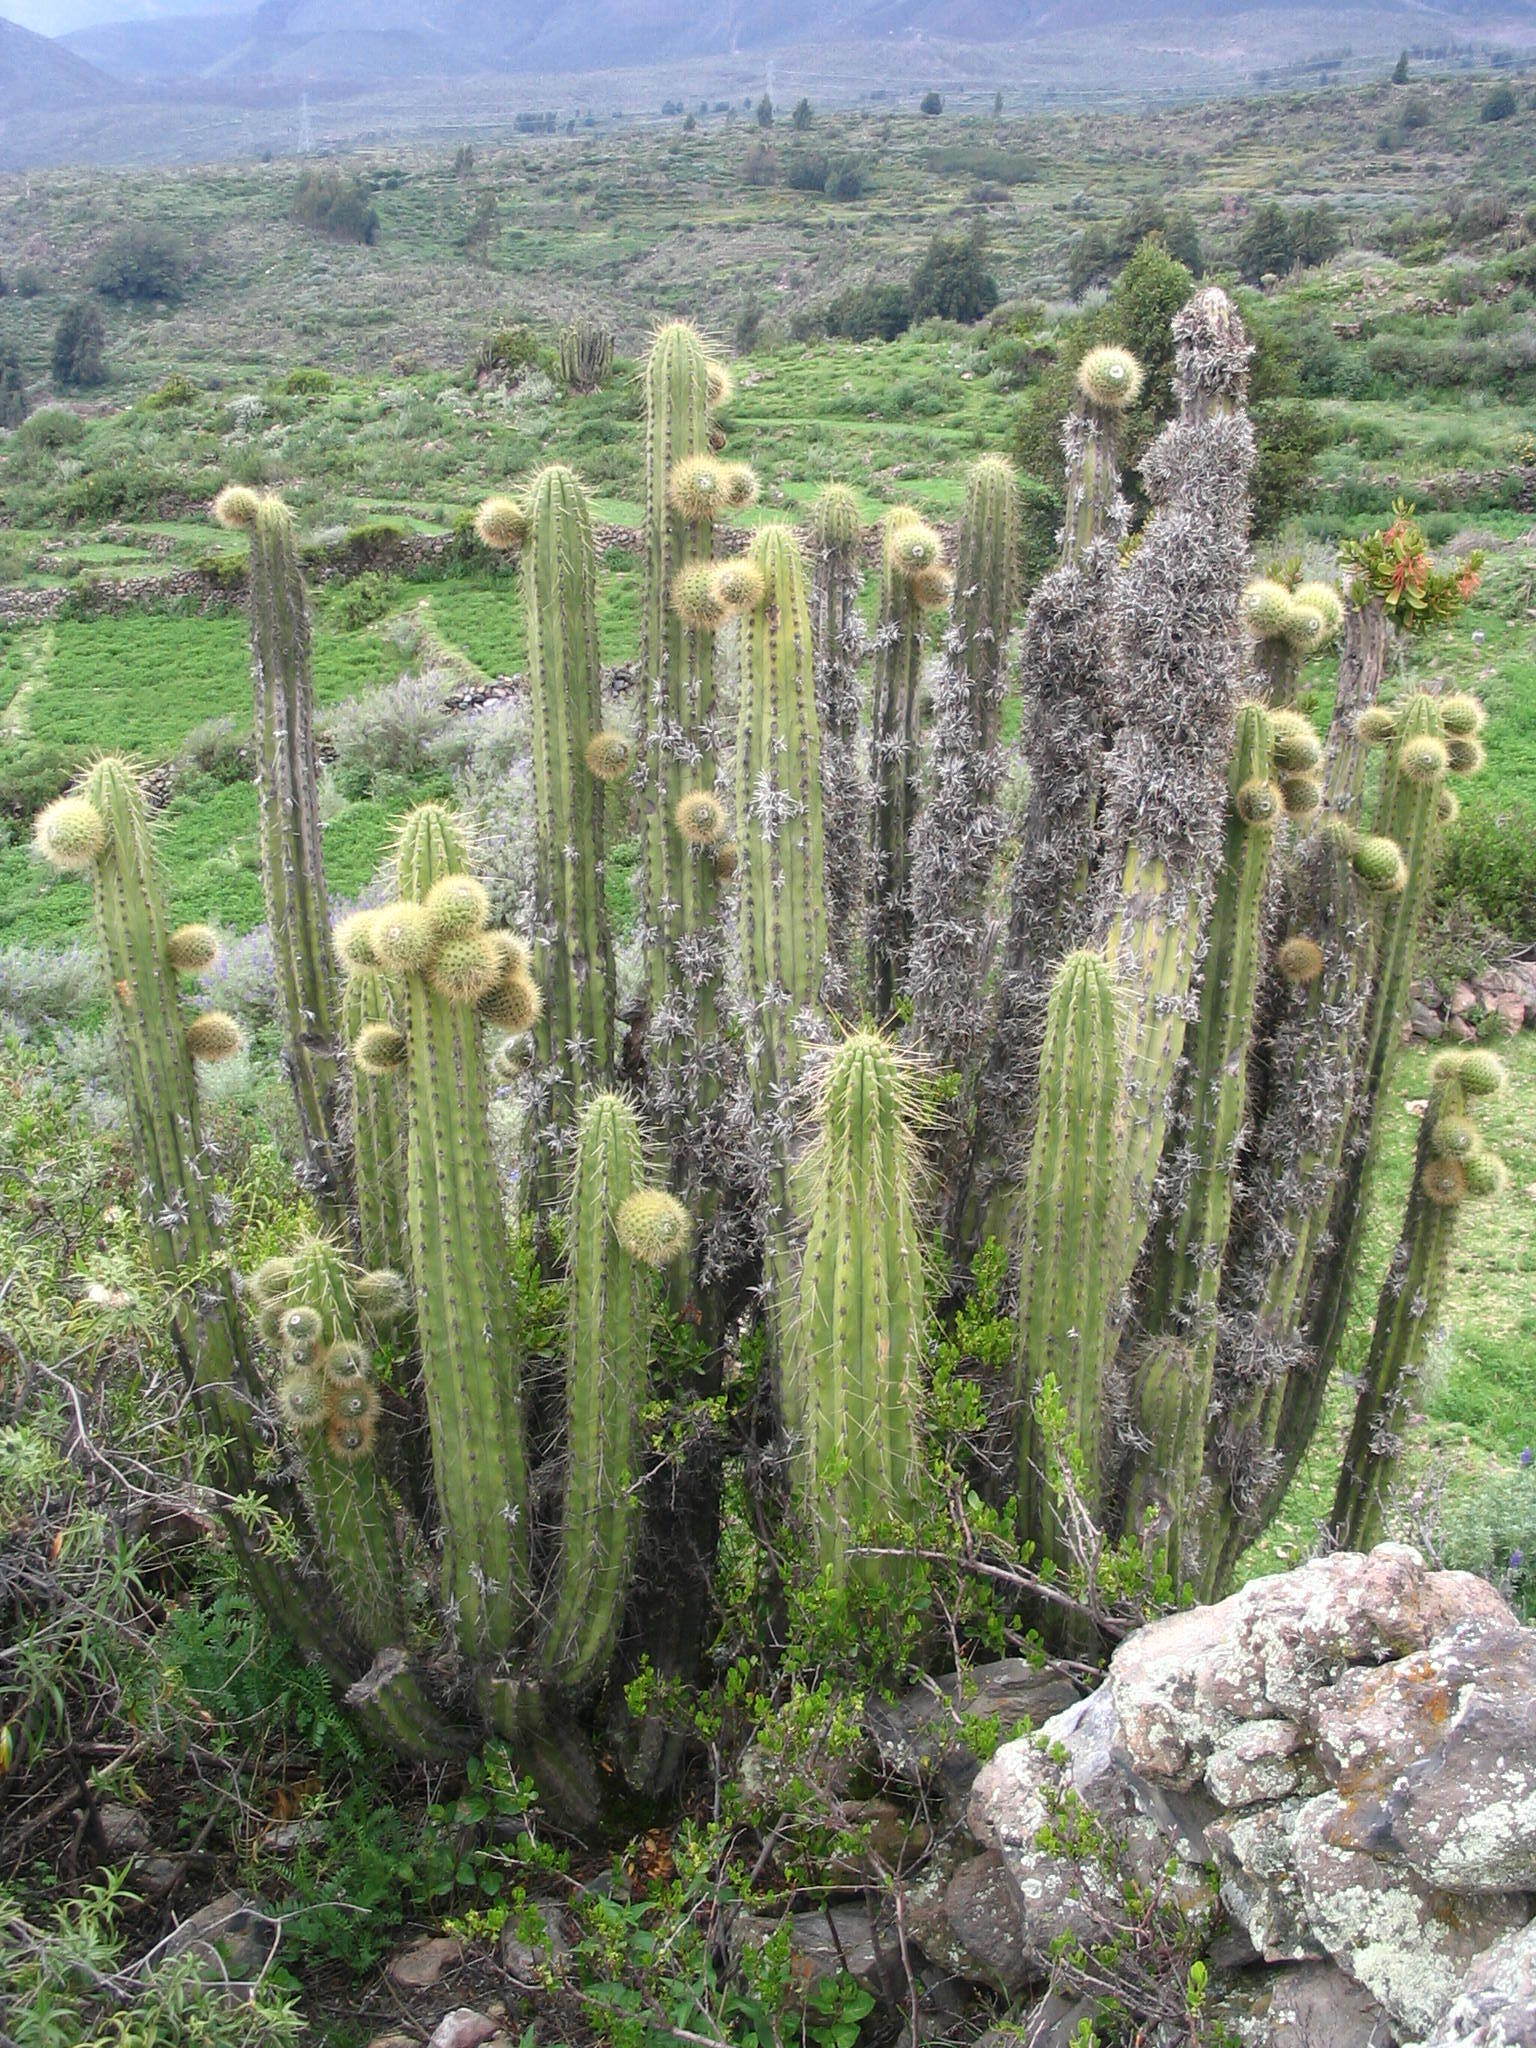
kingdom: Plantae
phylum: Tracheophyta
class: Magnoliopsida
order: Caryophyllales
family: Cactaceae
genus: Corryocactus
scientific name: Corryocactus brevistylus
